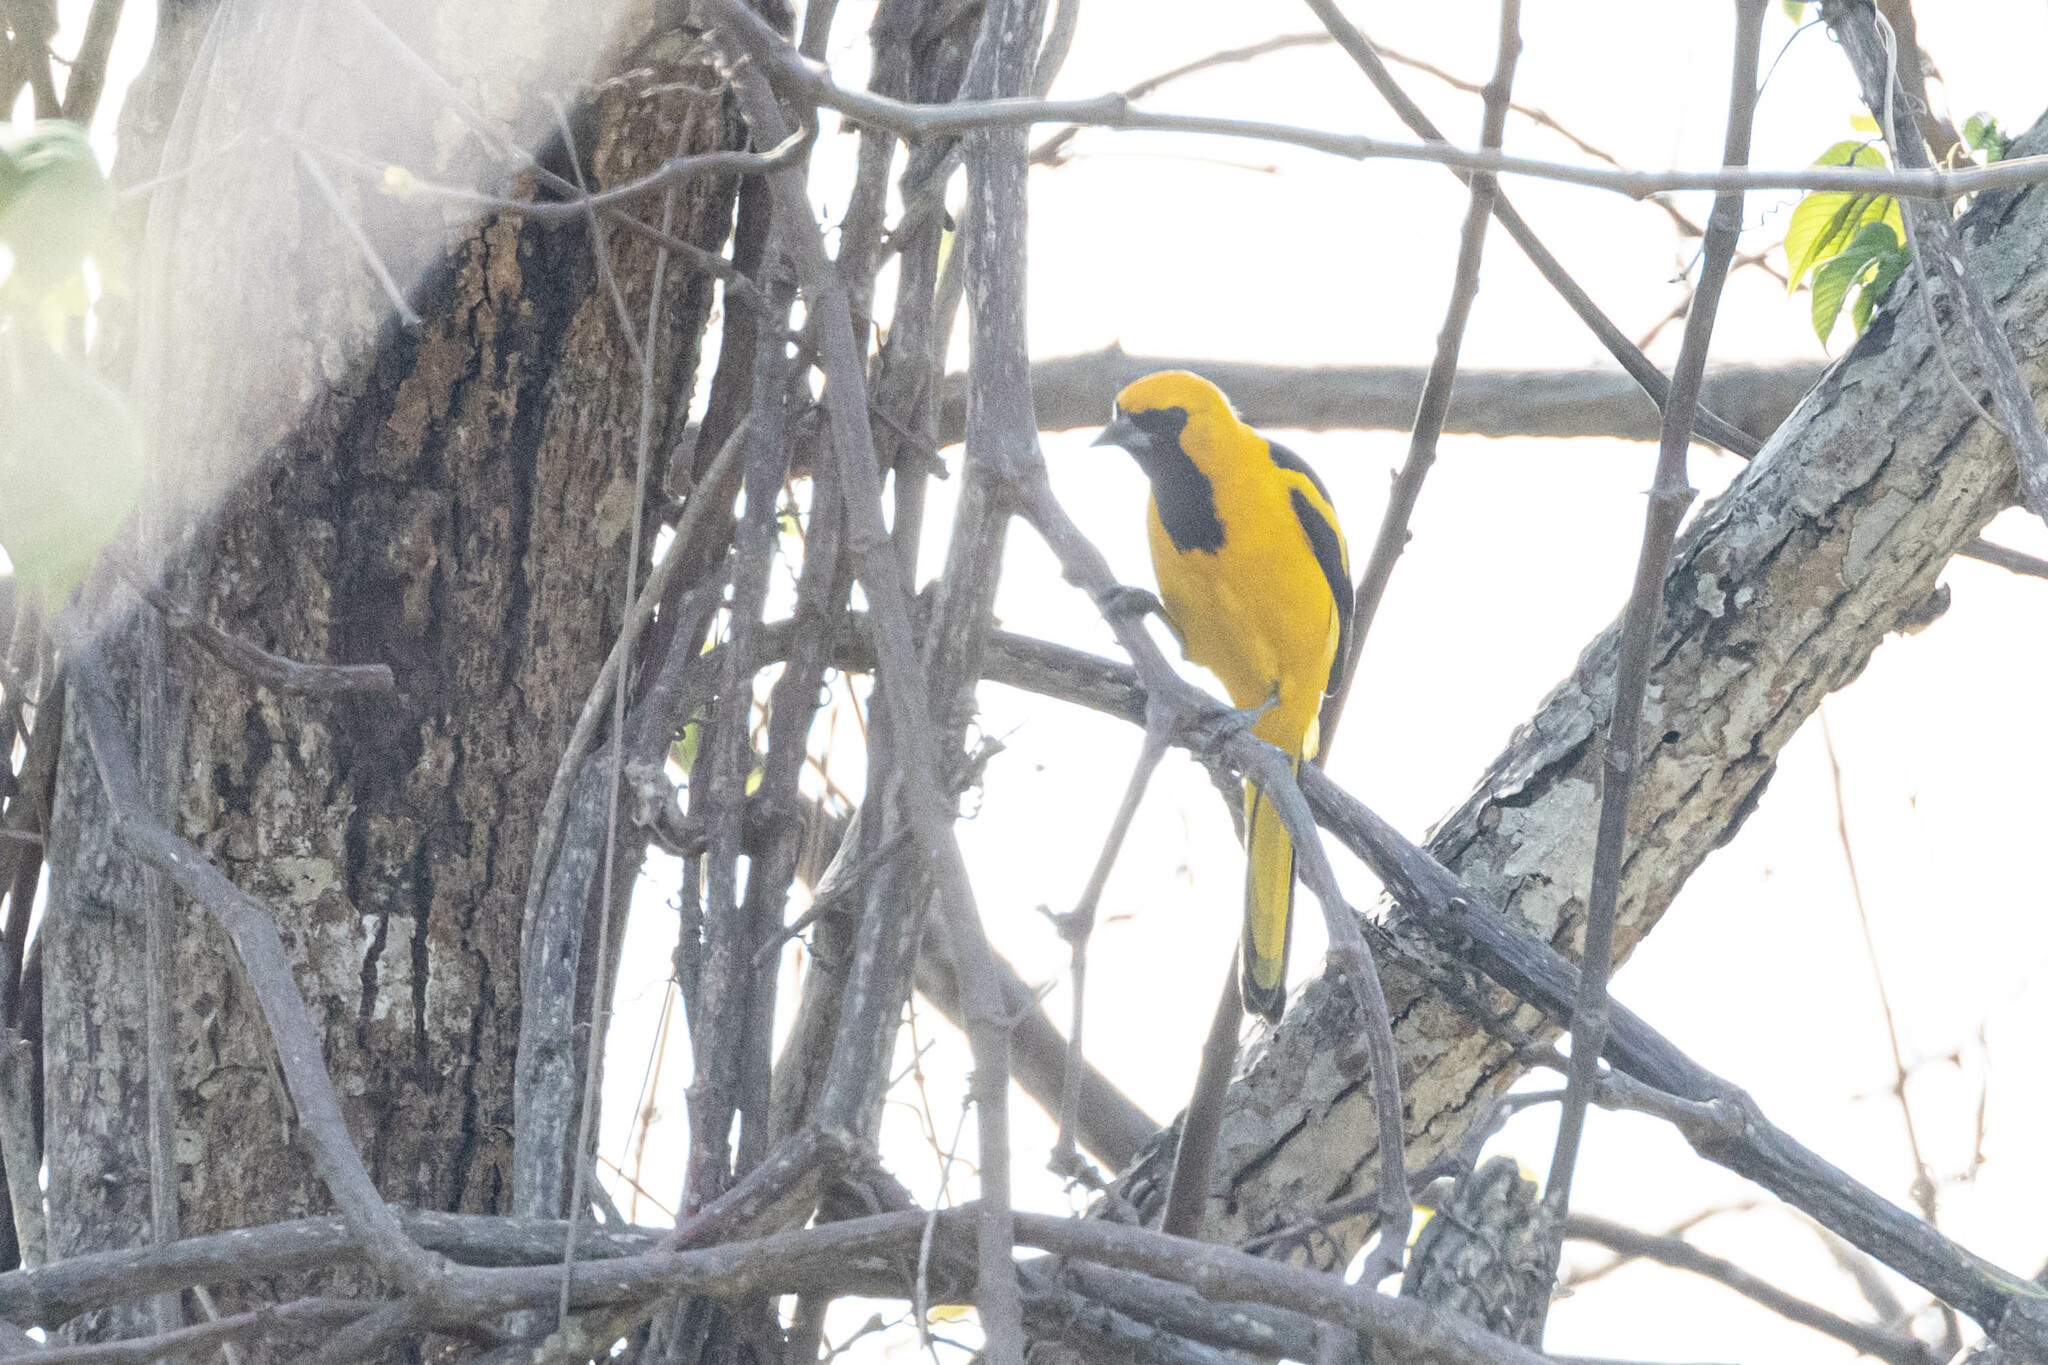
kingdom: Animalia
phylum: Chordata
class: Aves
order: Passeriformes
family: Icteridae
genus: Icterus
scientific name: Icterus mesomelas
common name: Yellow-tailed oriole
